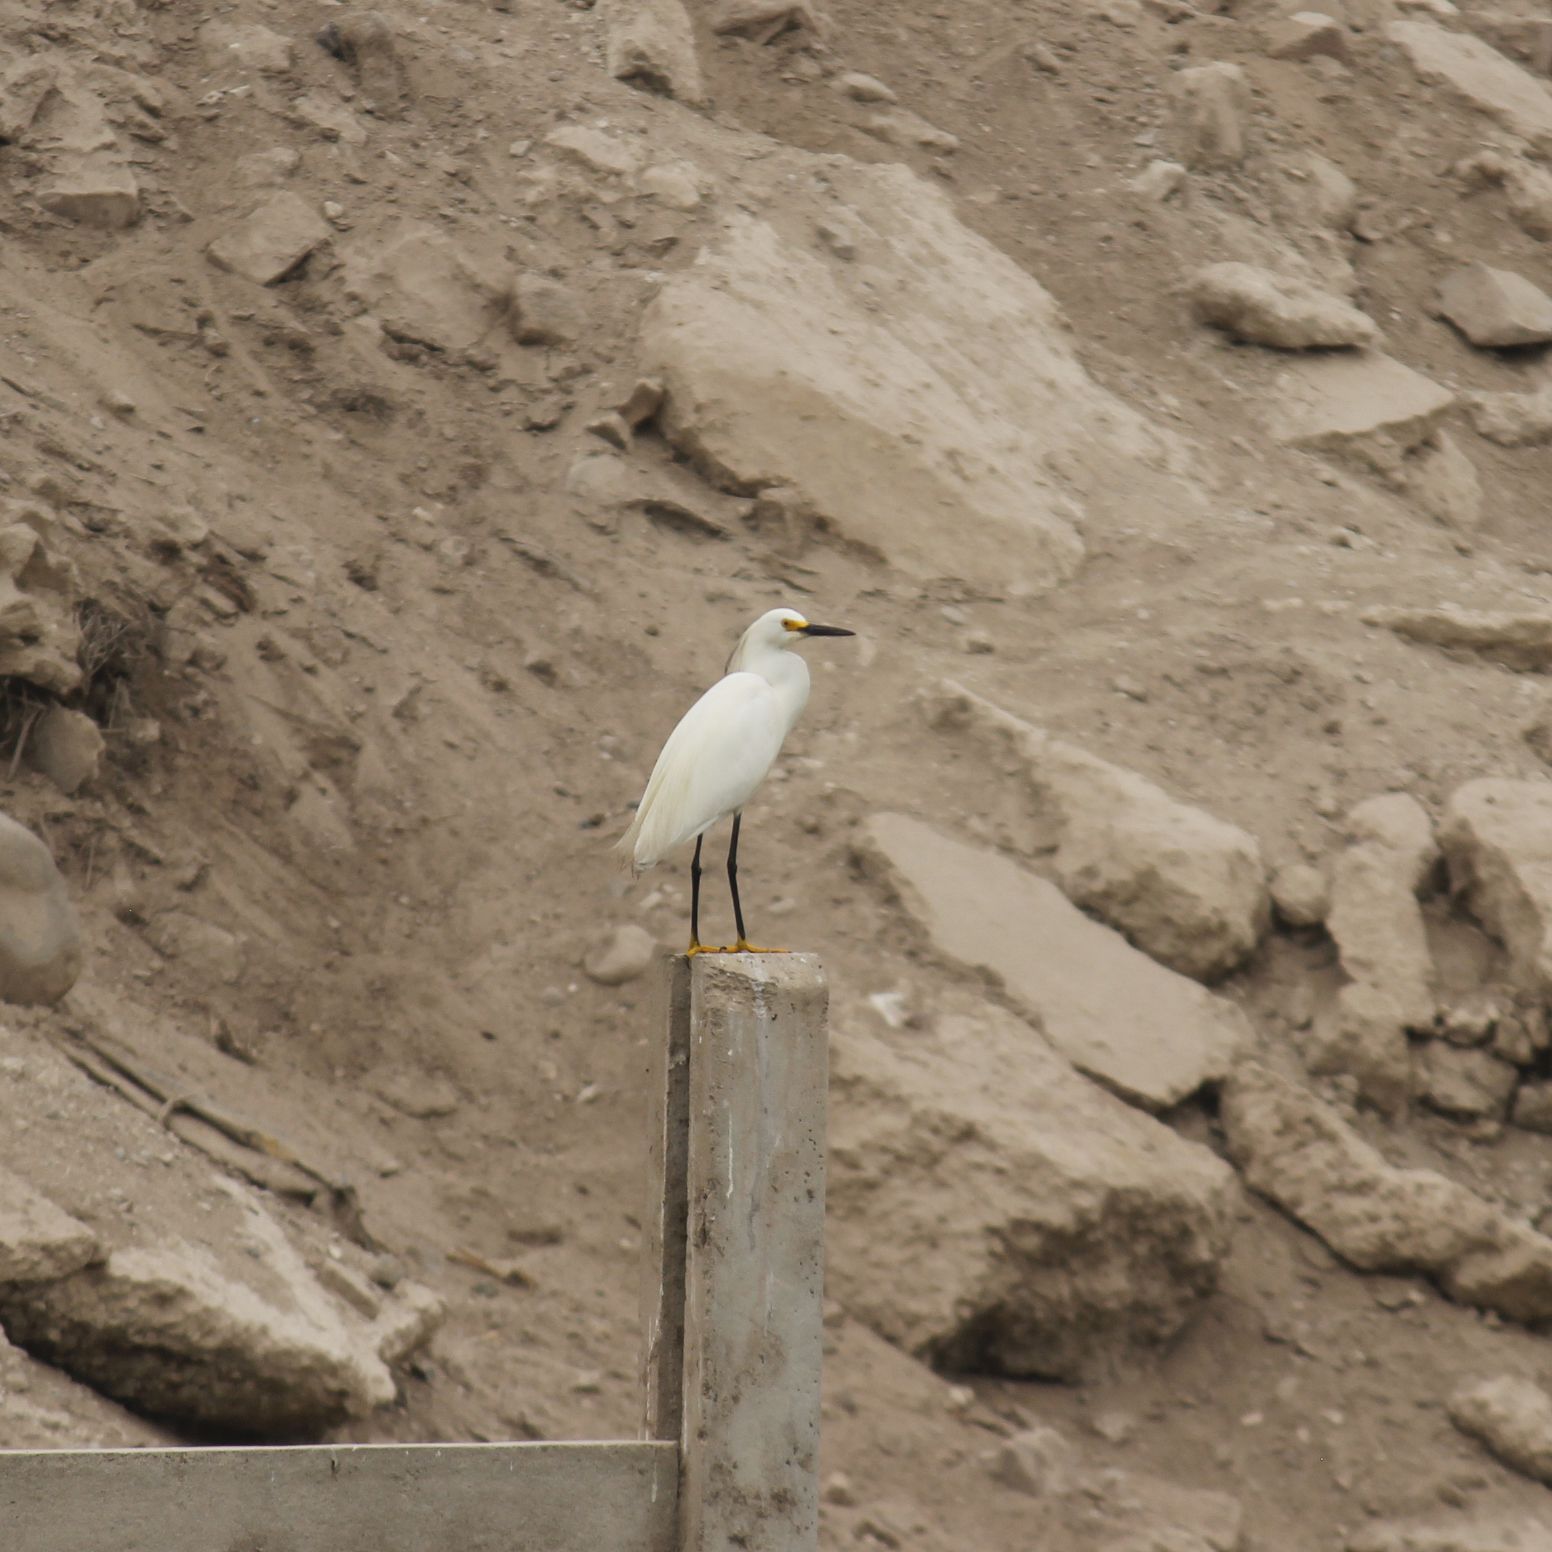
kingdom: Animalia
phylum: Chordata
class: Aves
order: Pelecaniformes
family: Ardeidae
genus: Egretta
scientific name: Egretta thula
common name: Snowy egret
